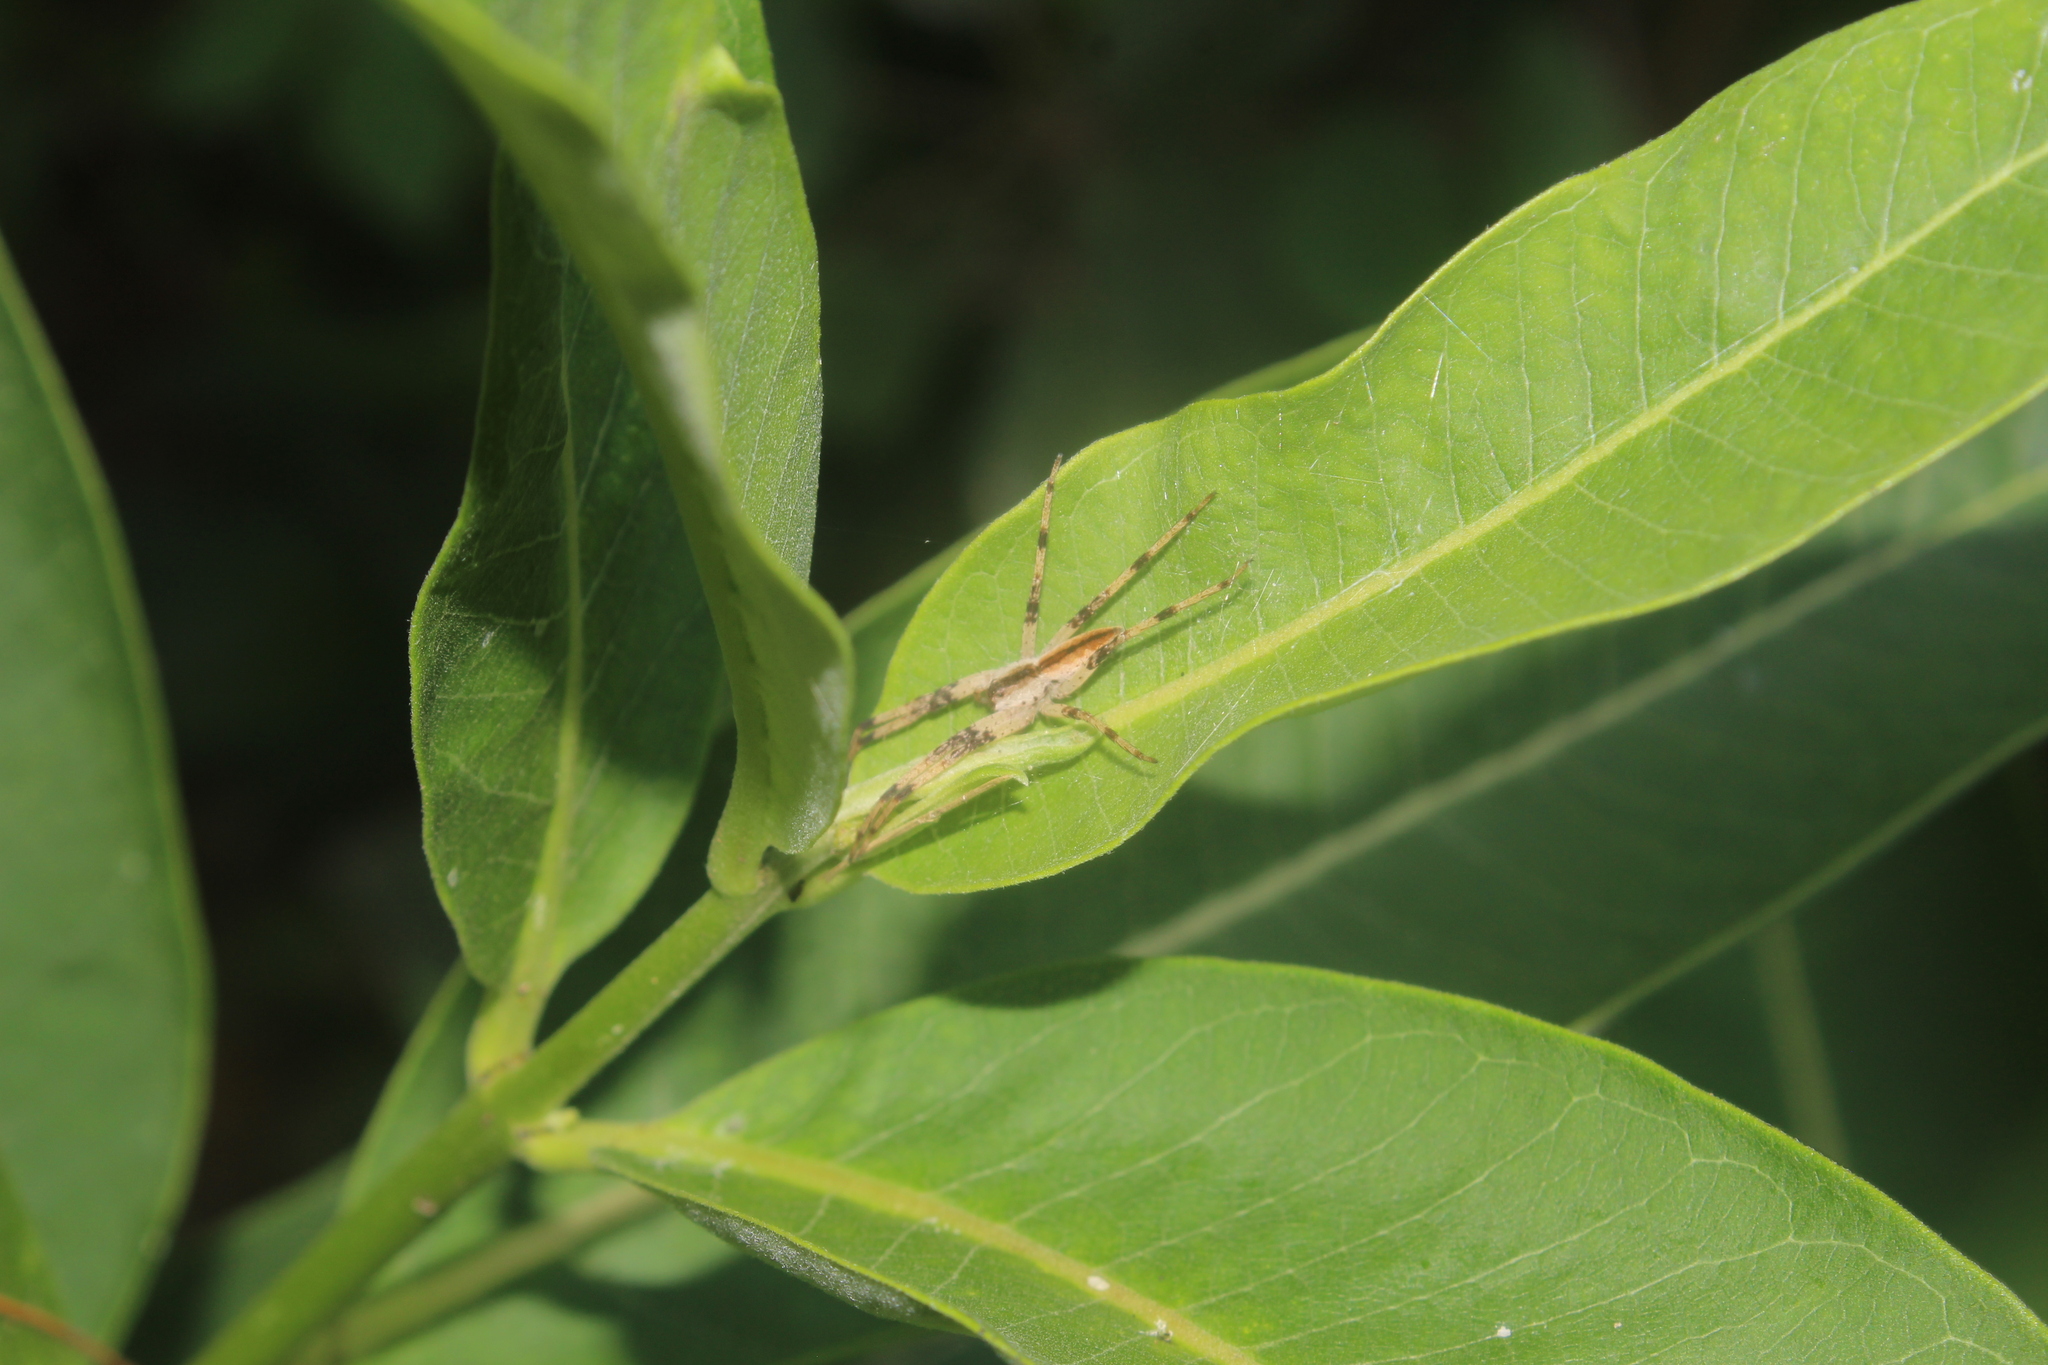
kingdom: Animalia
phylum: Arthropoda
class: Arachnida
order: Araneae
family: Pisauridae
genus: Pisaurina
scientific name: Pisaurina mira
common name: American nursery web spider
